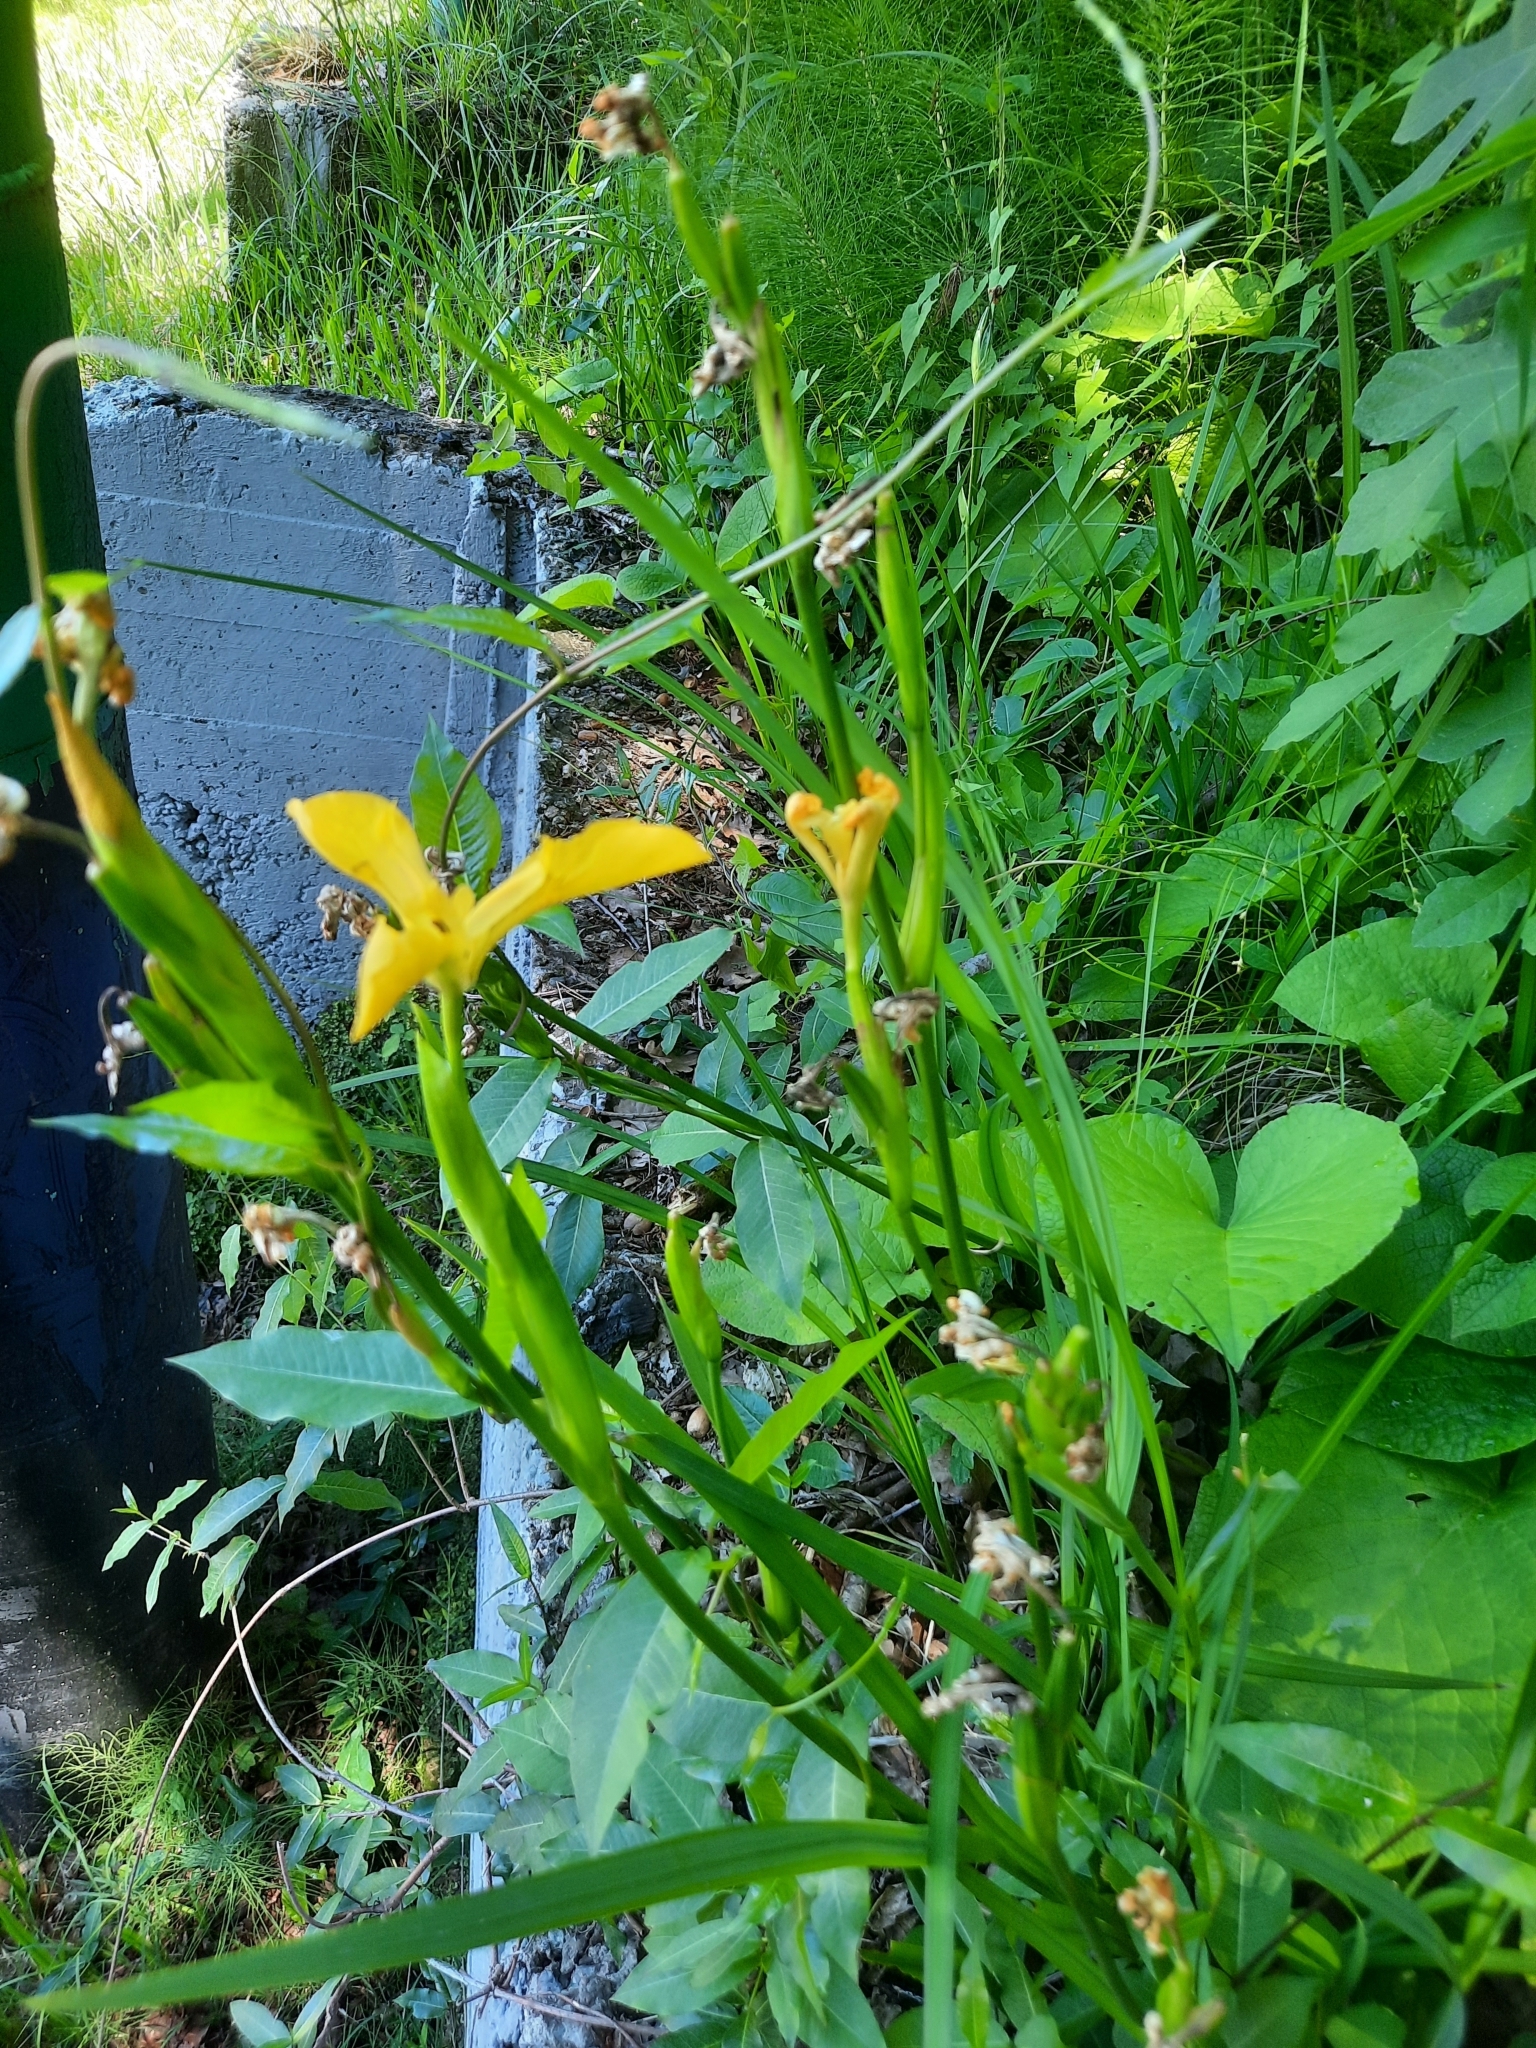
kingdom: Plantae
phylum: Tracheophyta
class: Liliopsida
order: Asparagales
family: Iridaceae
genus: Iris
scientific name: Iris pseudacorus
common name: Yellow flag
